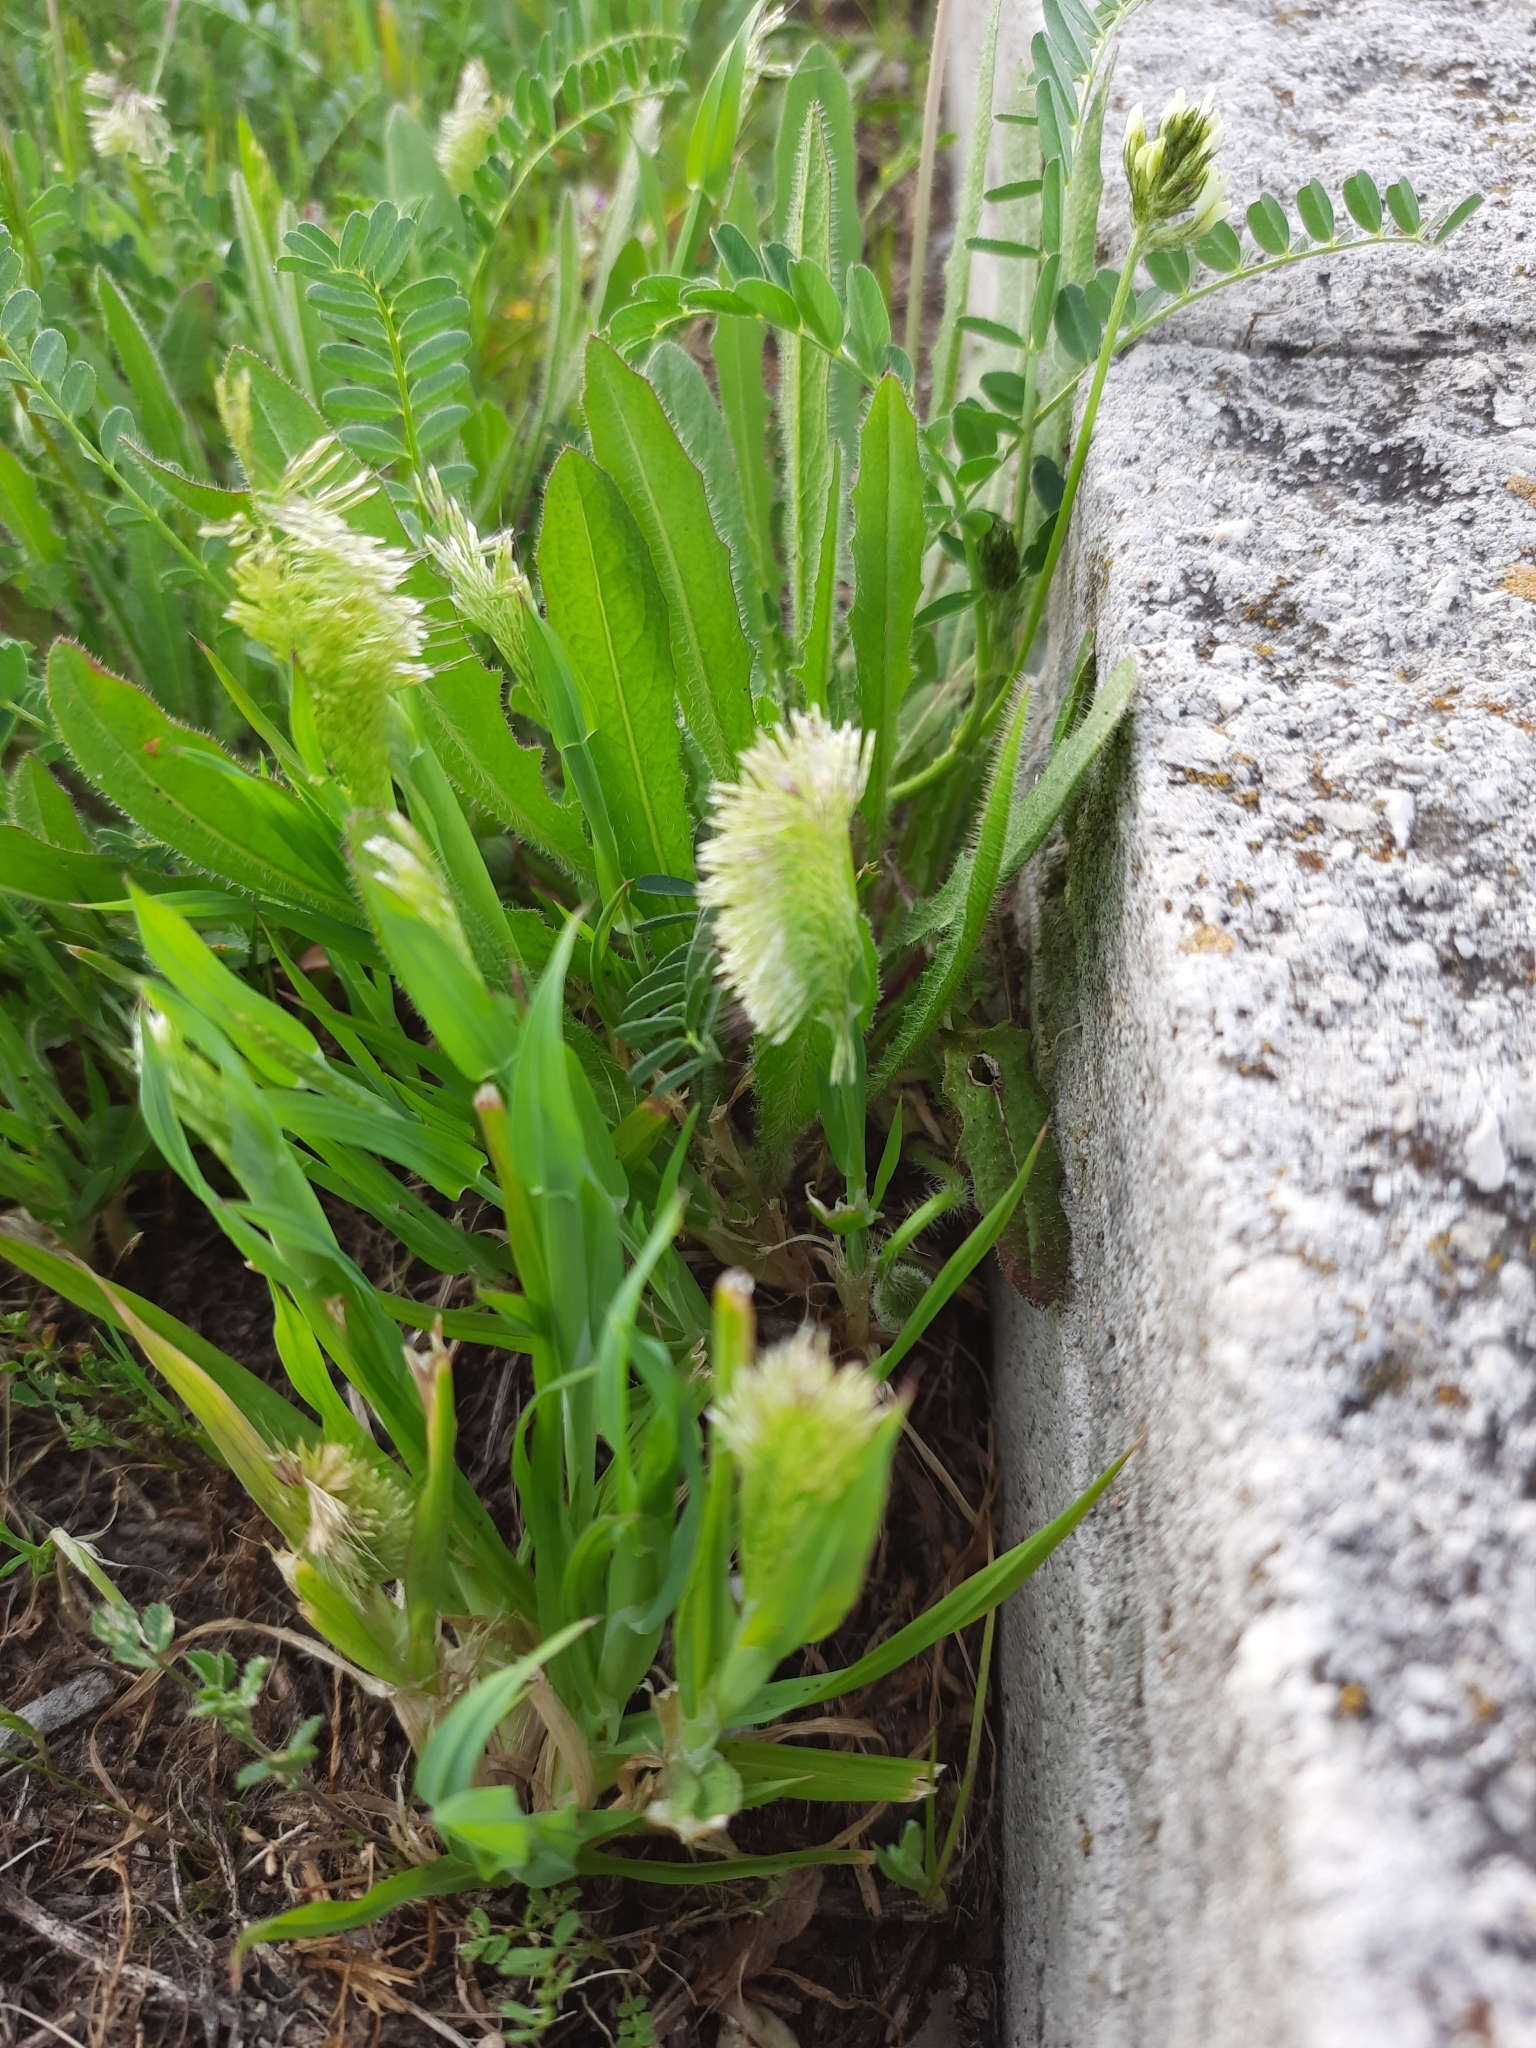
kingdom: Plantae
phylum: Tracheophyta
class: Liliopsida
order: Poales
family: Poaceae
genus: Lamarckia
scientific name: Lamarckia aurea
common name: Golden dog's-tail
